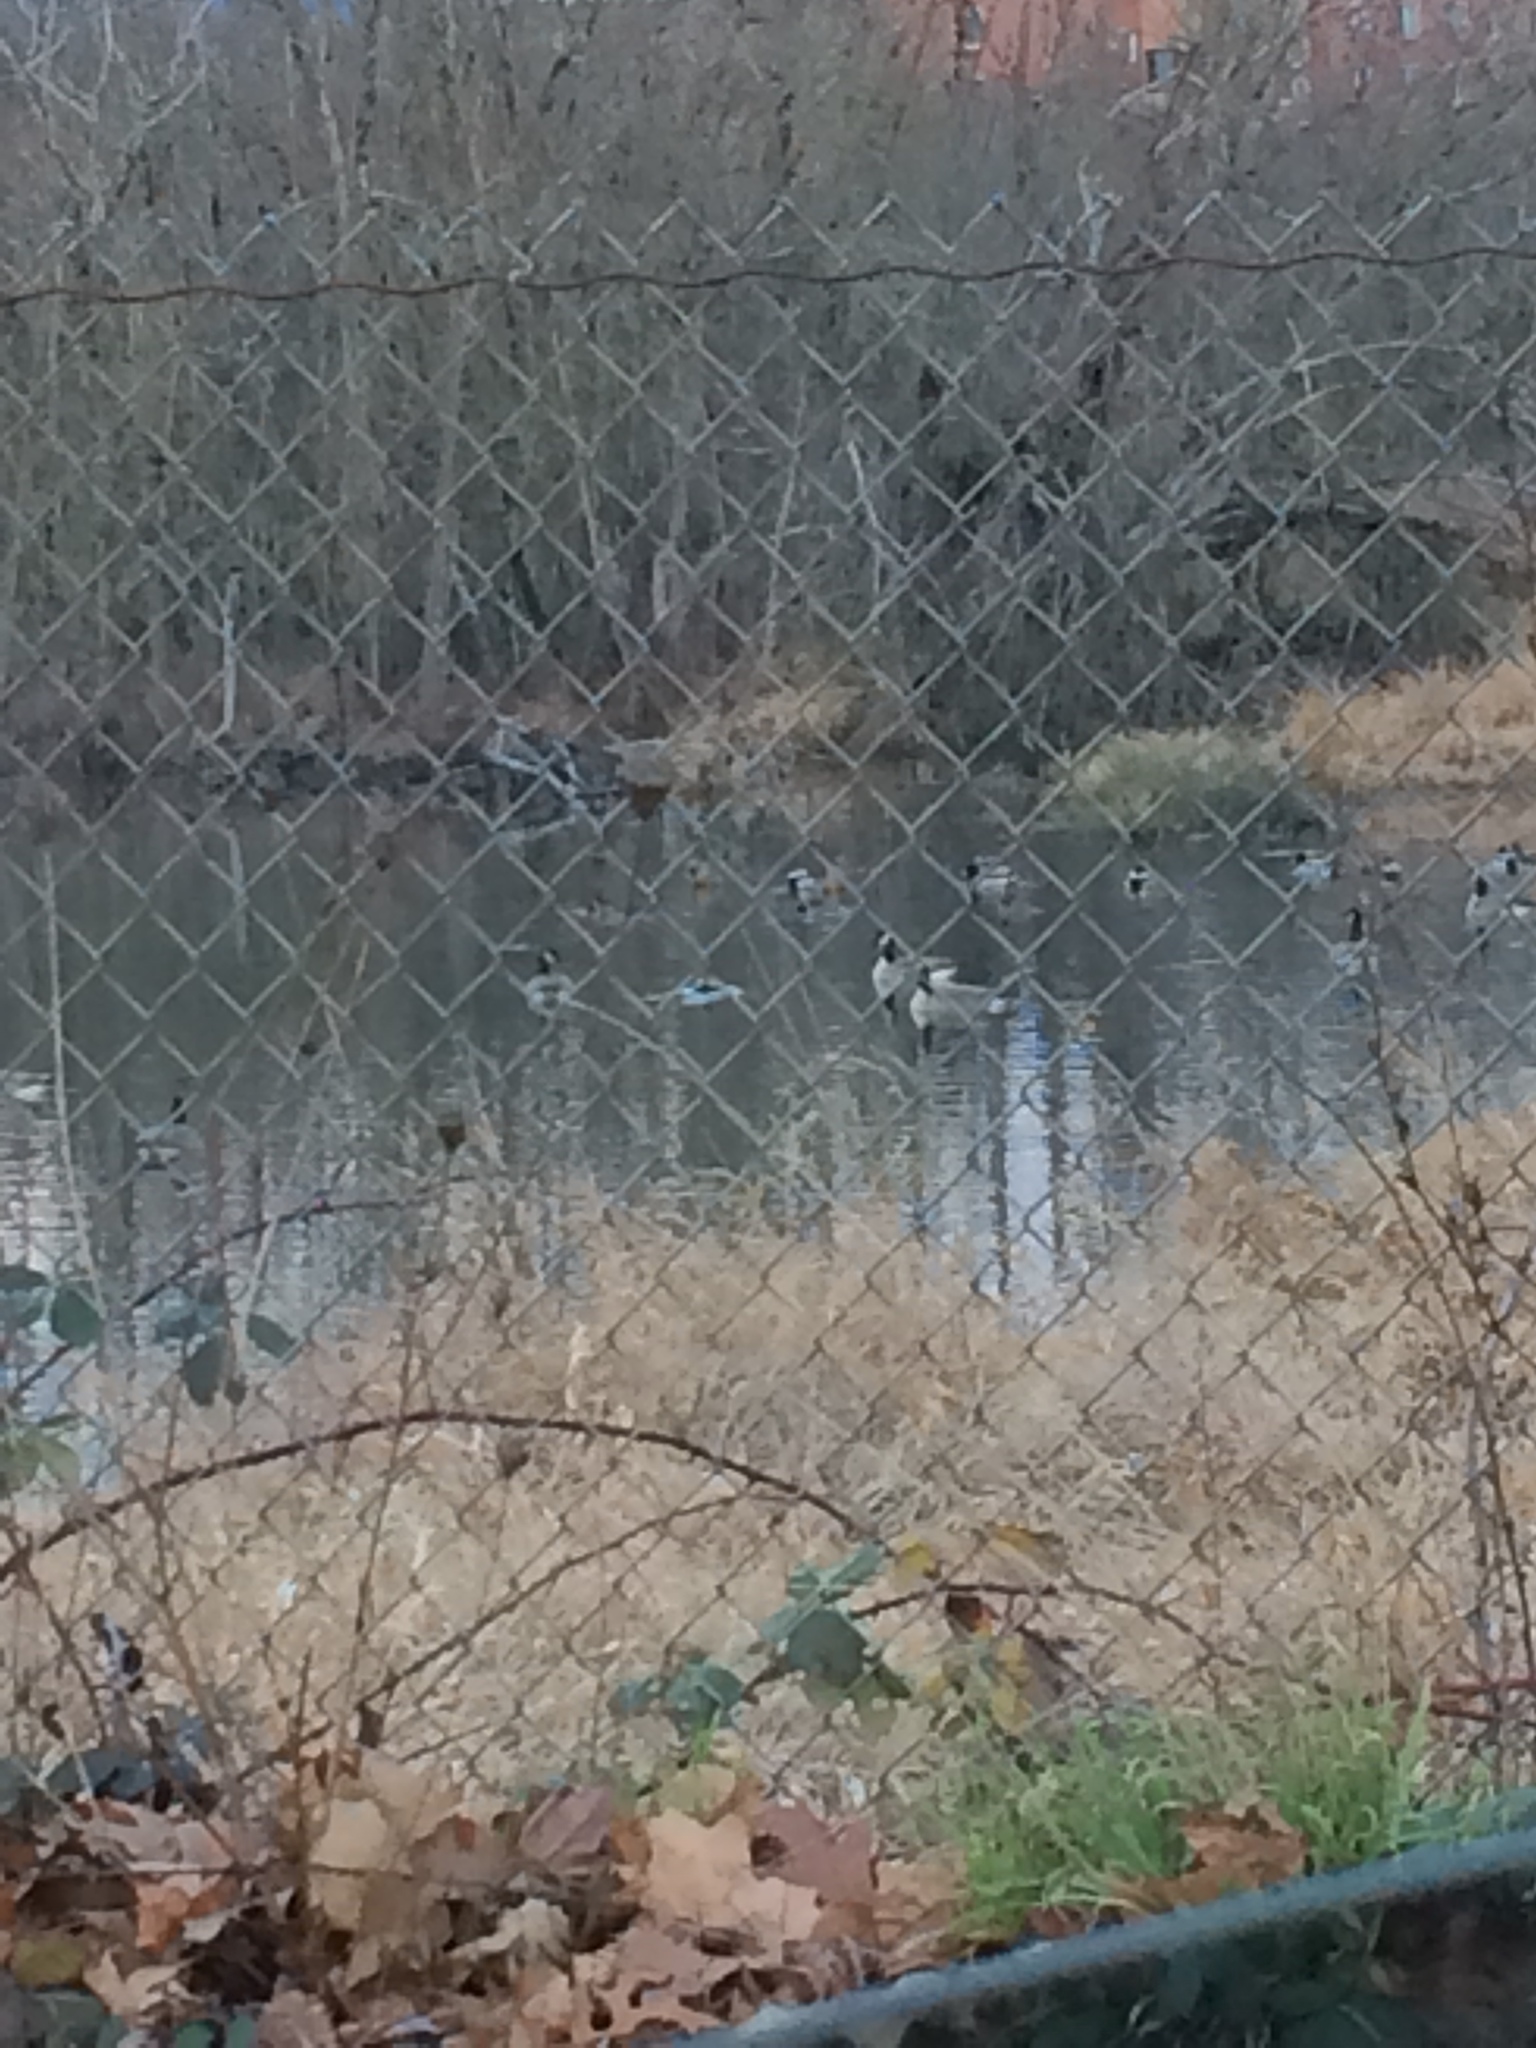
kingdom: Animalia
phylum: Chordata
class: Aves
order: Anseriformes
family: Anatidae
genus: Branta
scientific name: Branta
